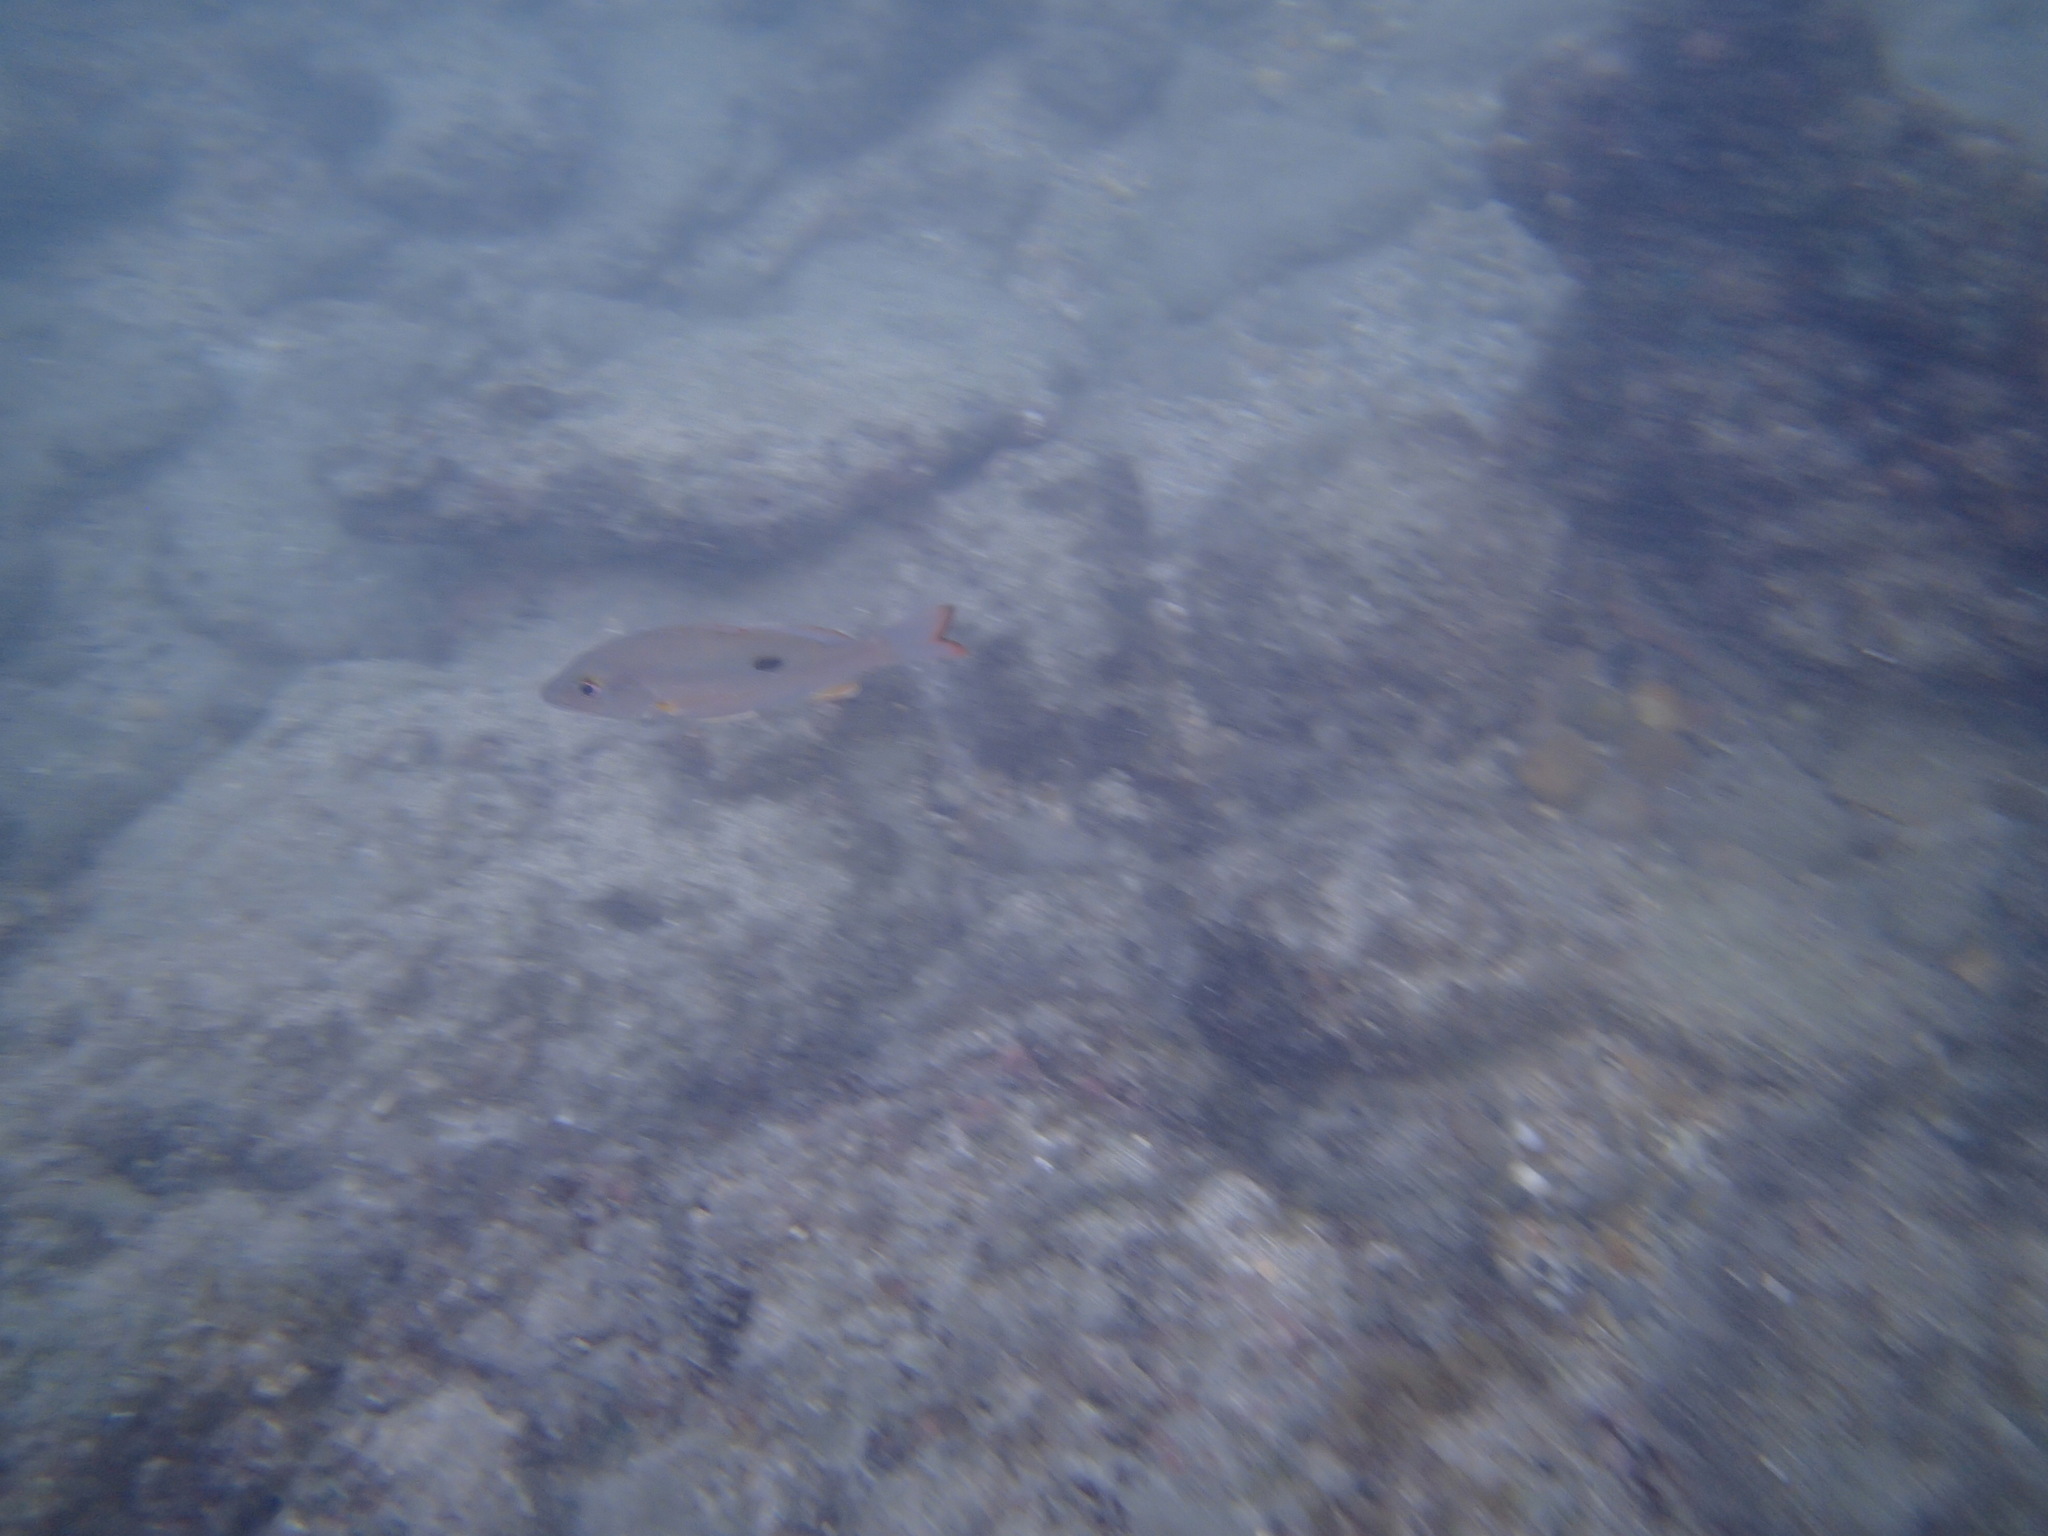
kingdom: Animalia
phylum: Chordata
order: Perciformes
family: Lutjanidae
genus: Lutjanus
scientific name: Lutjanus mahogoni
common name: Spot snapper
